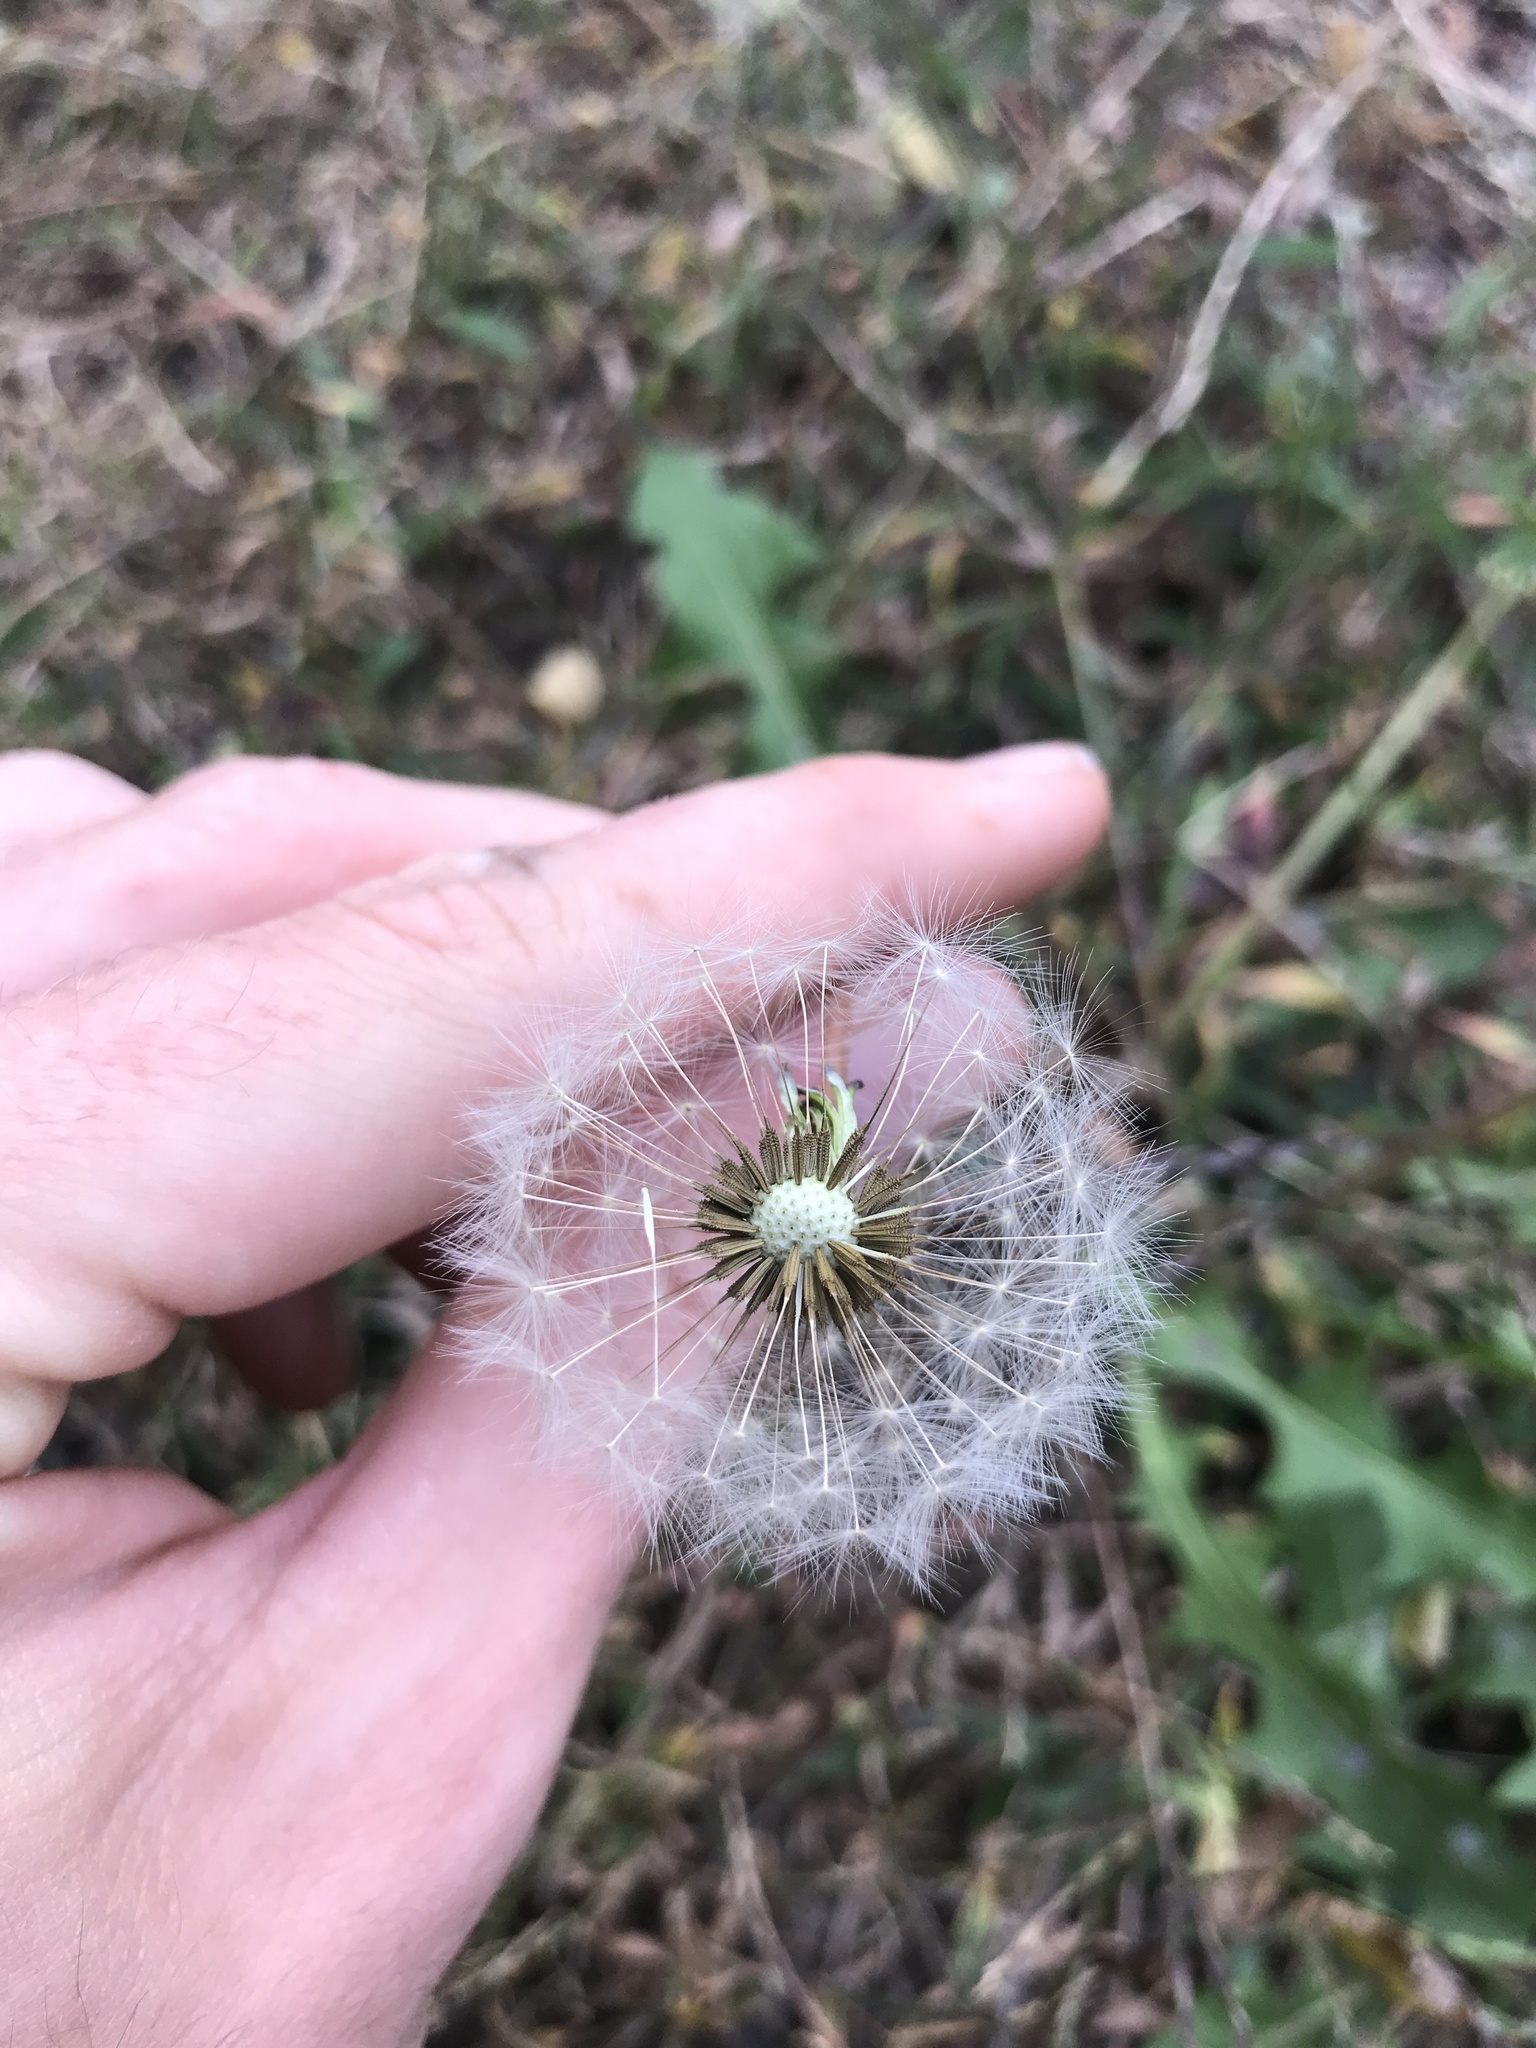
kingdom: Plantae
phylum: Tracheophyta
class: Magnoliopsida
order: Asterales
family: Asteraceae
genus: Taraxacum
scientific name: Taraxacum officinale
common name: Common dandelion
